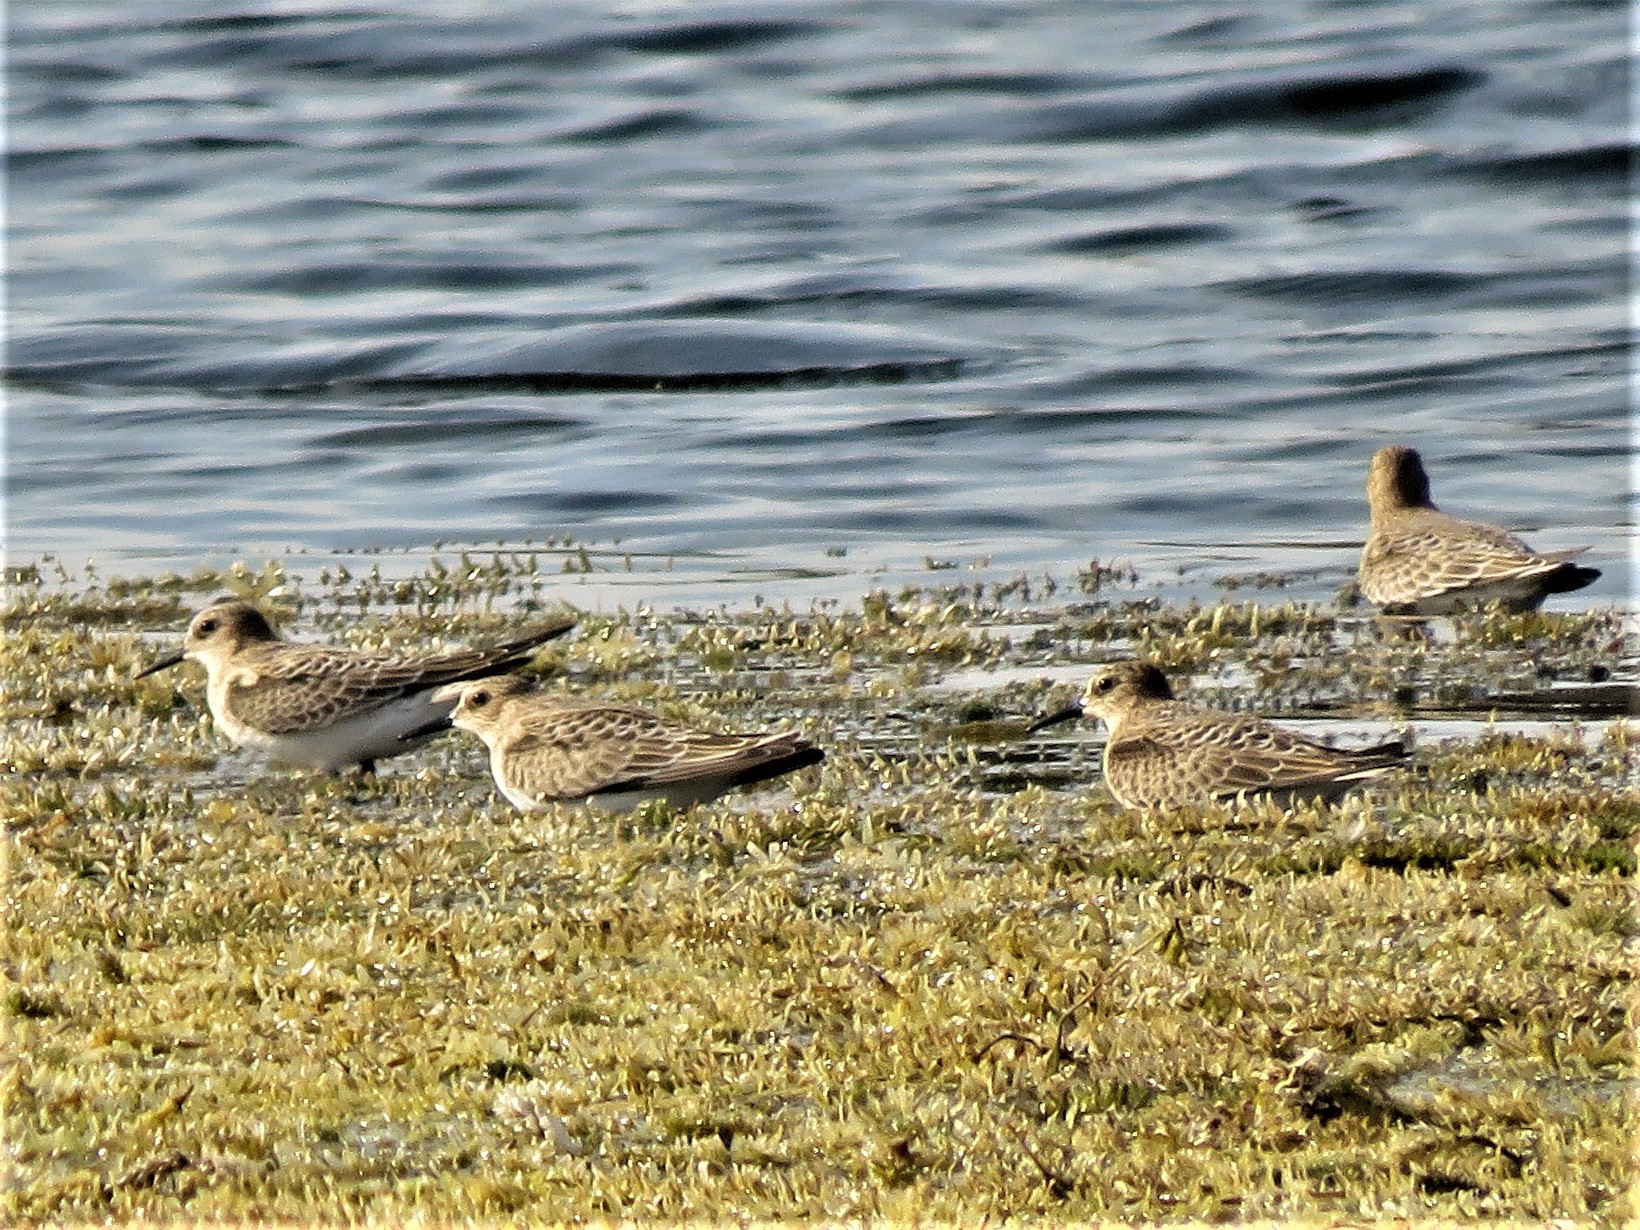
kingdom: Animalia
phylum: Chordata
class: Aves
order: Charadriiformes
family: Scolopacidae
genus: Calidris
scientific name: Calidris bairdii
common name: Baird's sandpiper
